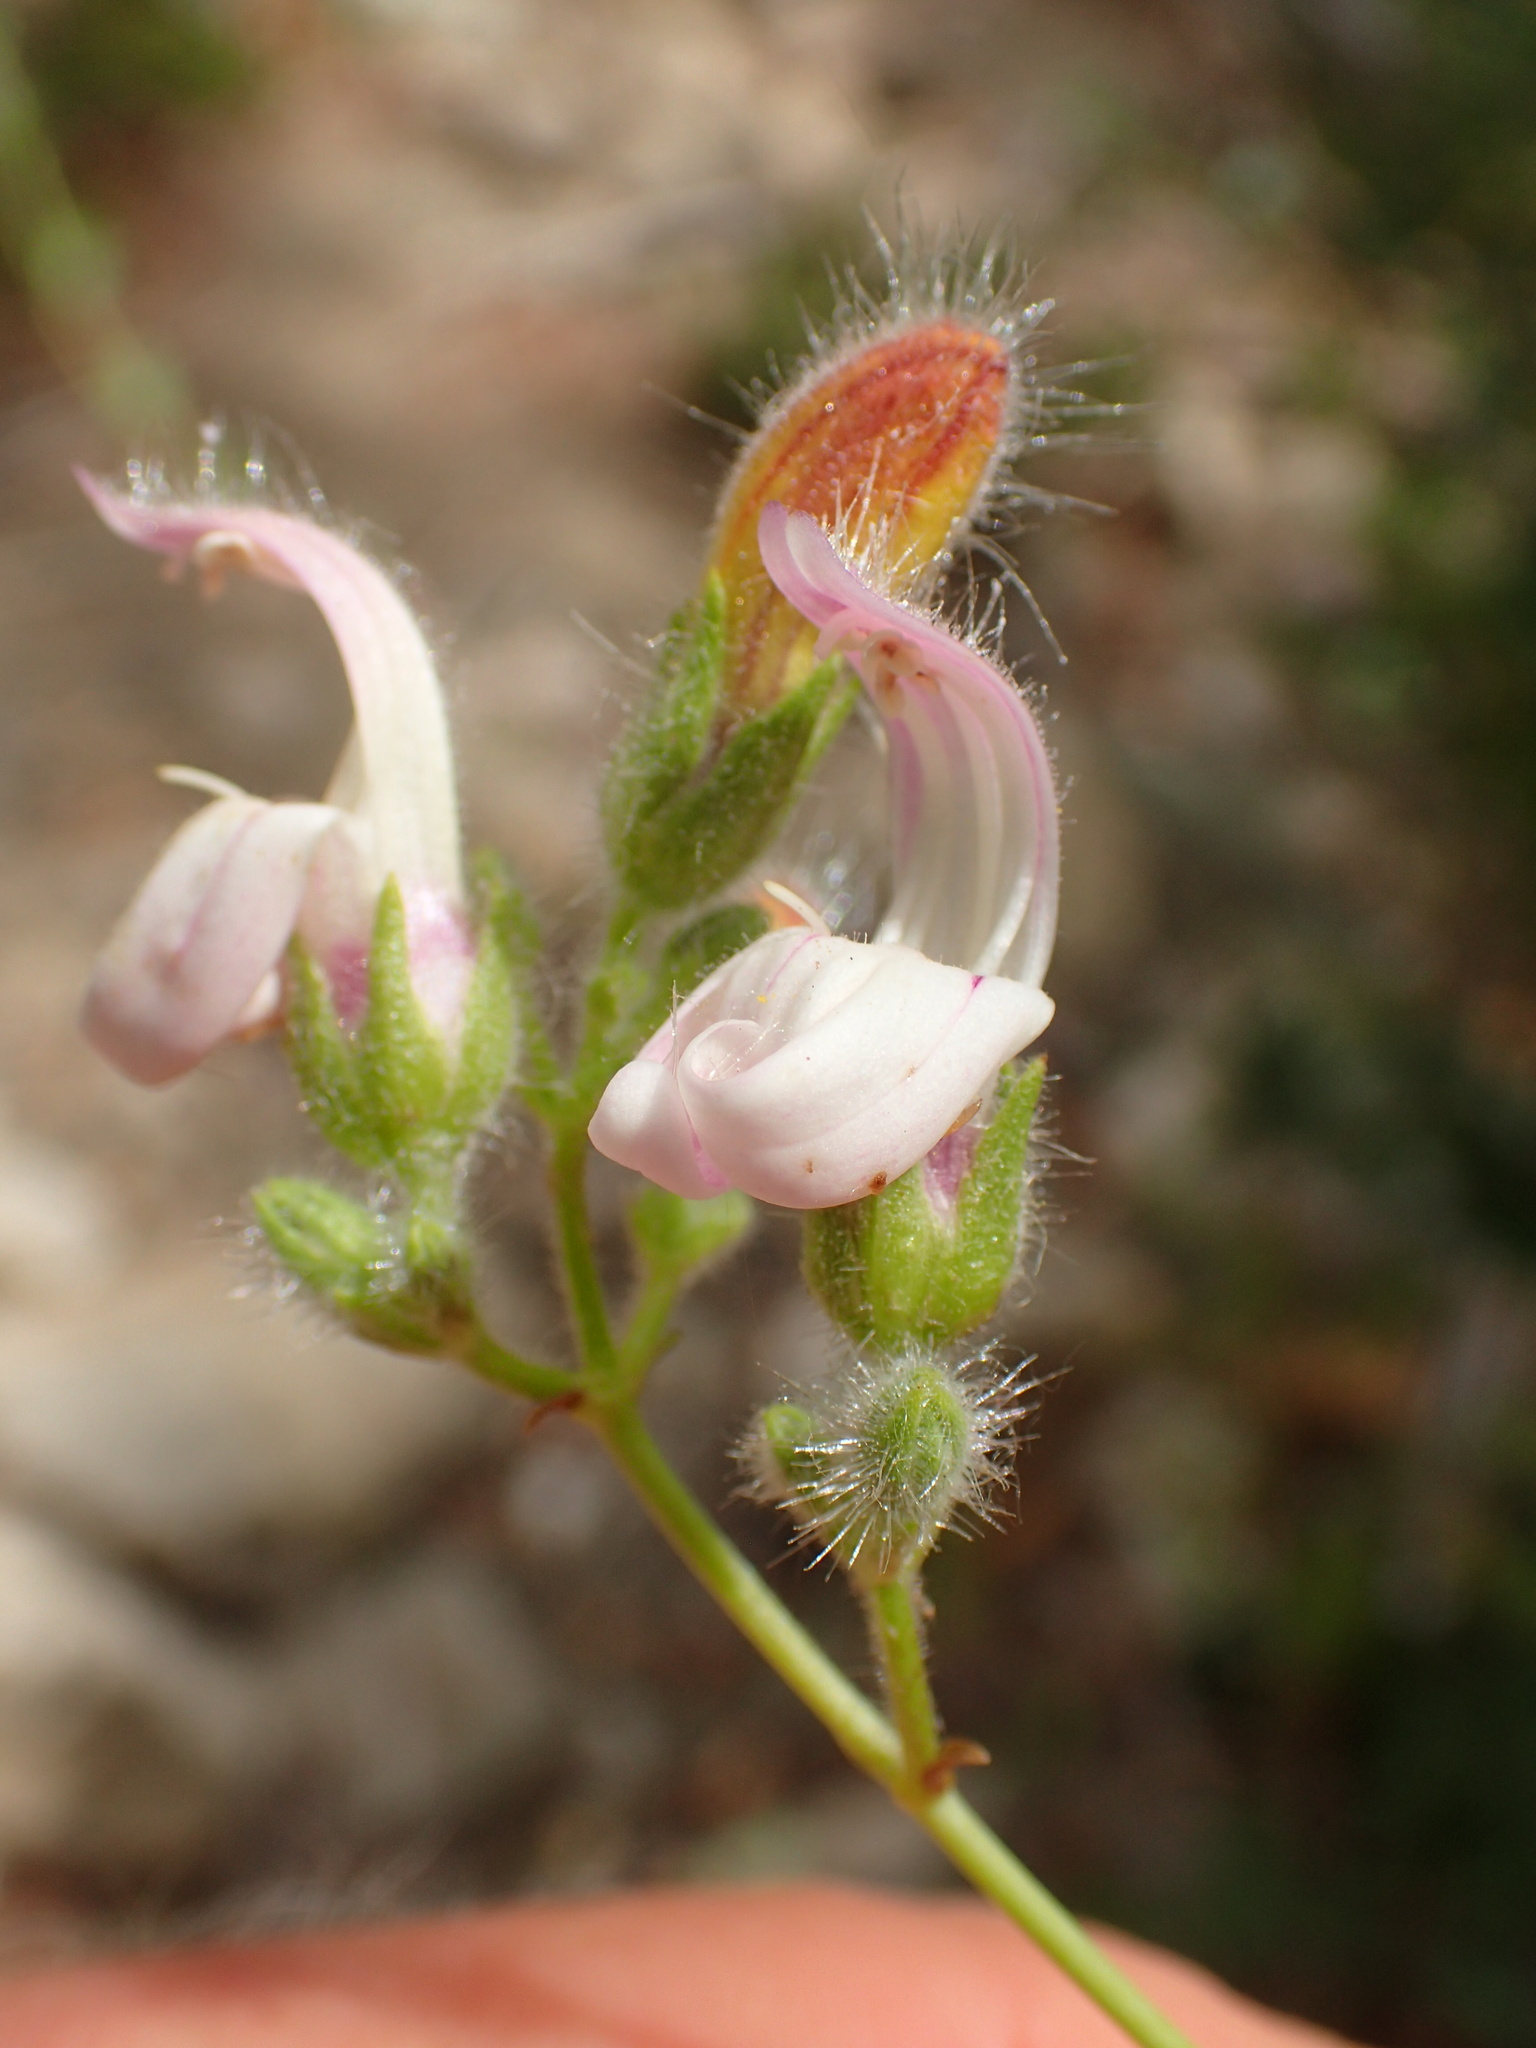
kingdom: Plantae
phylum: Tracheophyta
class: Magnoliopsida
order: Lamiales
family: Plantaginaceae
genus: Keckiella
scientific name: Keckiella breviflora
